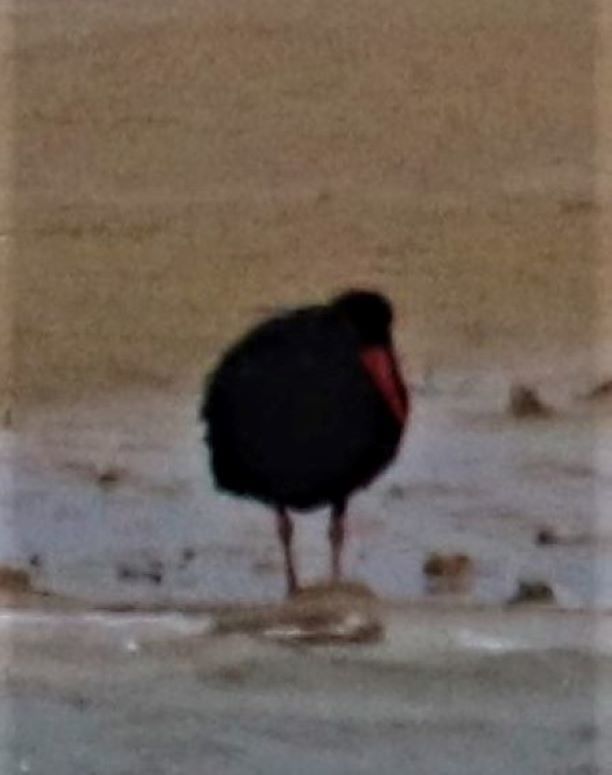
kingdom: Animalia
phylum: Chordata
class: Aves
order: Charadriiformes
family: Haematopodidae
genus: Haematopus
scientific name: Haematopus moquini
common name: African oystercatcher
